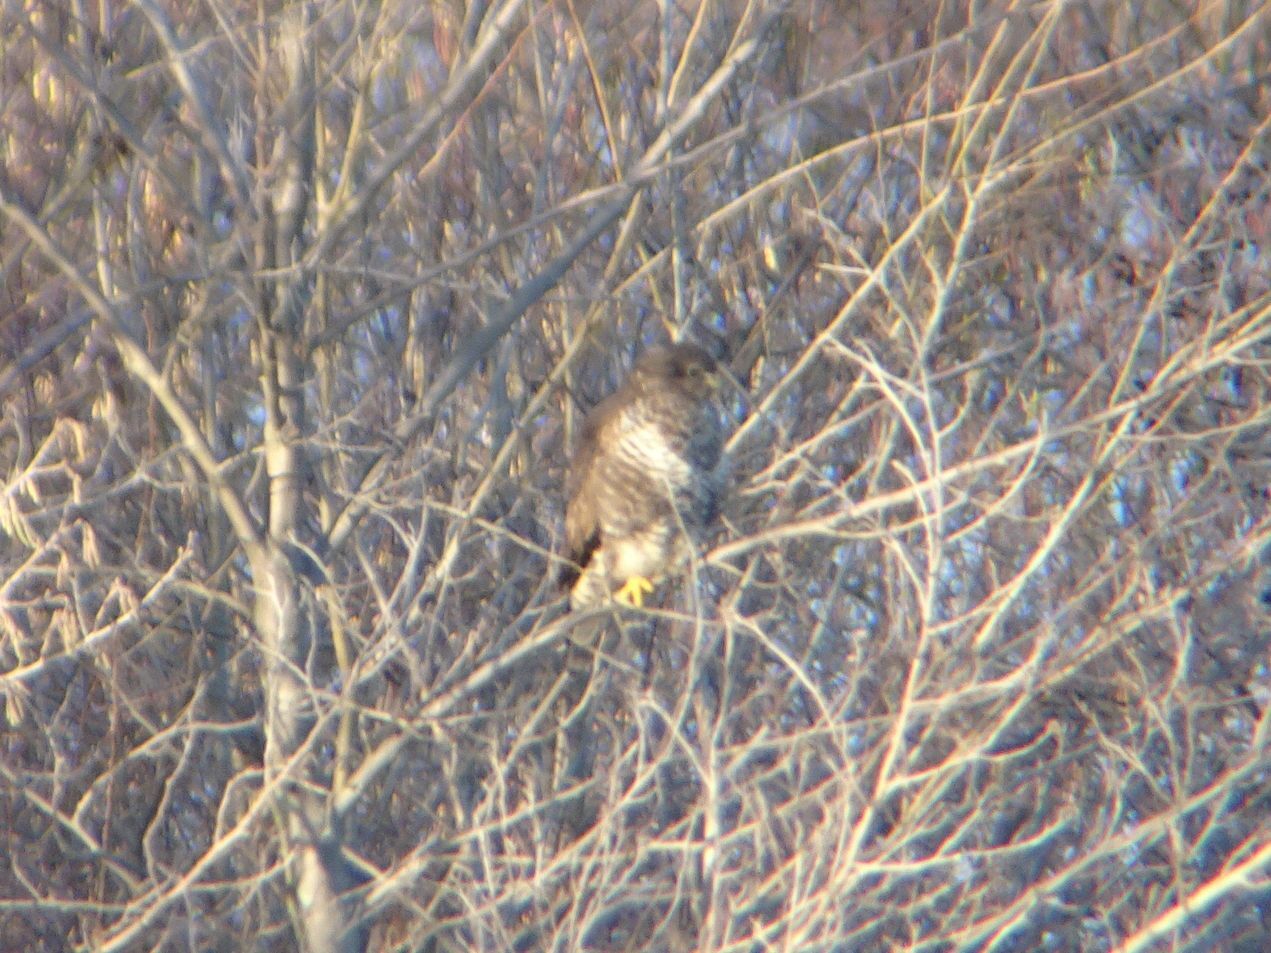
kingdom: Animalia
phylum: Chordata
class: Aves
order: Accipitriformes
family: Accipitridae
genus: Buteo
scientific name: Buteo buteo
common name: Common buzzard
